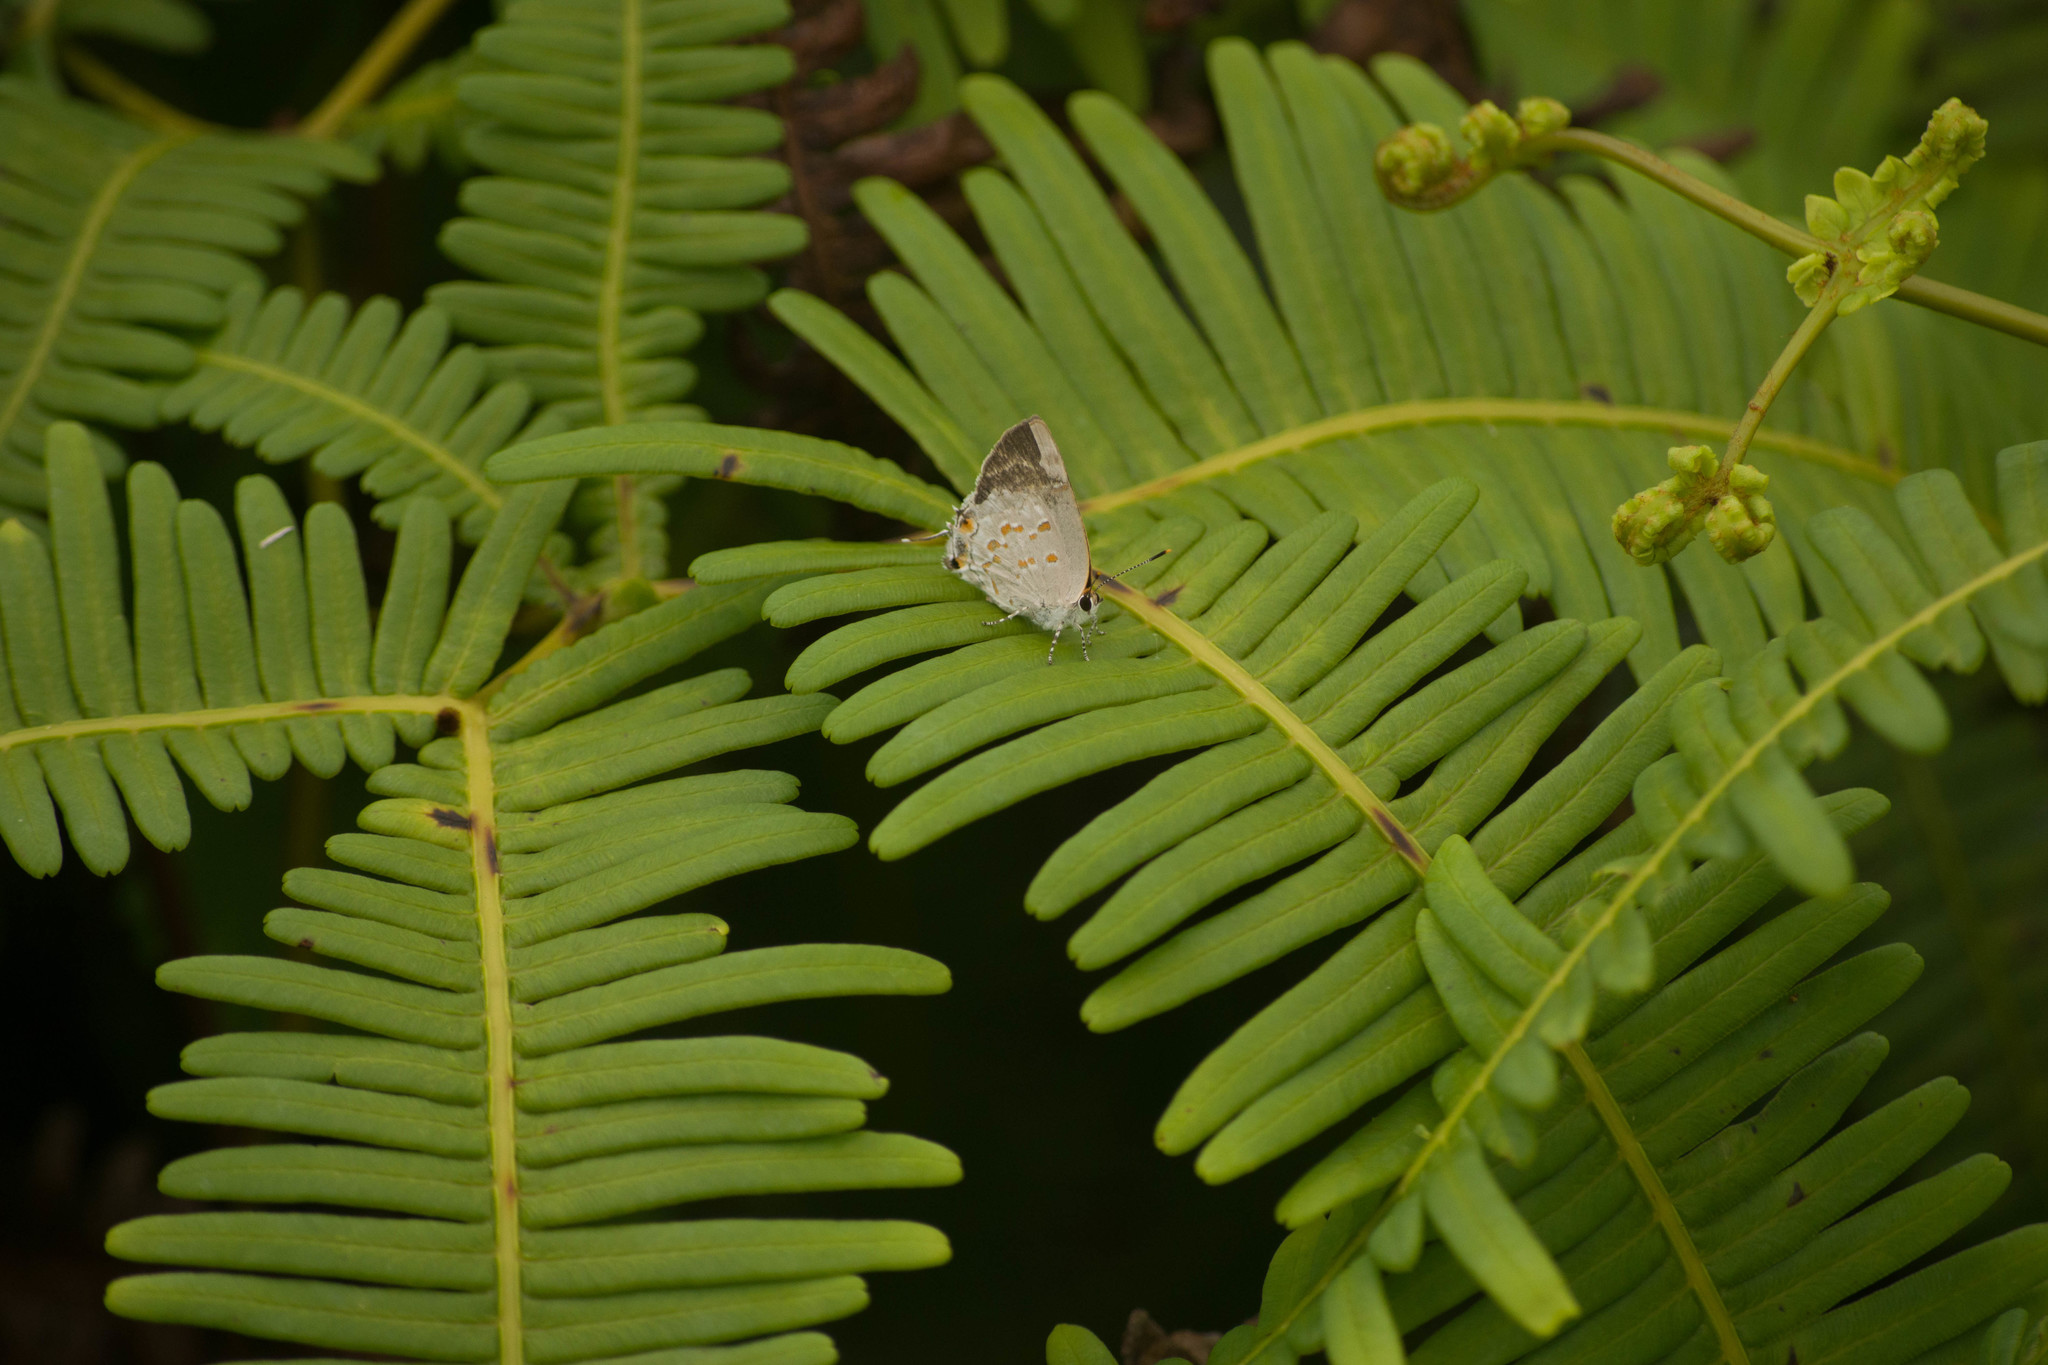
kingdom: Animalia
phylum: Arthropoda
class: Insecta
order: Lepidoptera
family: Lycaenidae
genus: Tmolus
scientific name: Tmolus echion
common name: Red-spotted hairstreak
